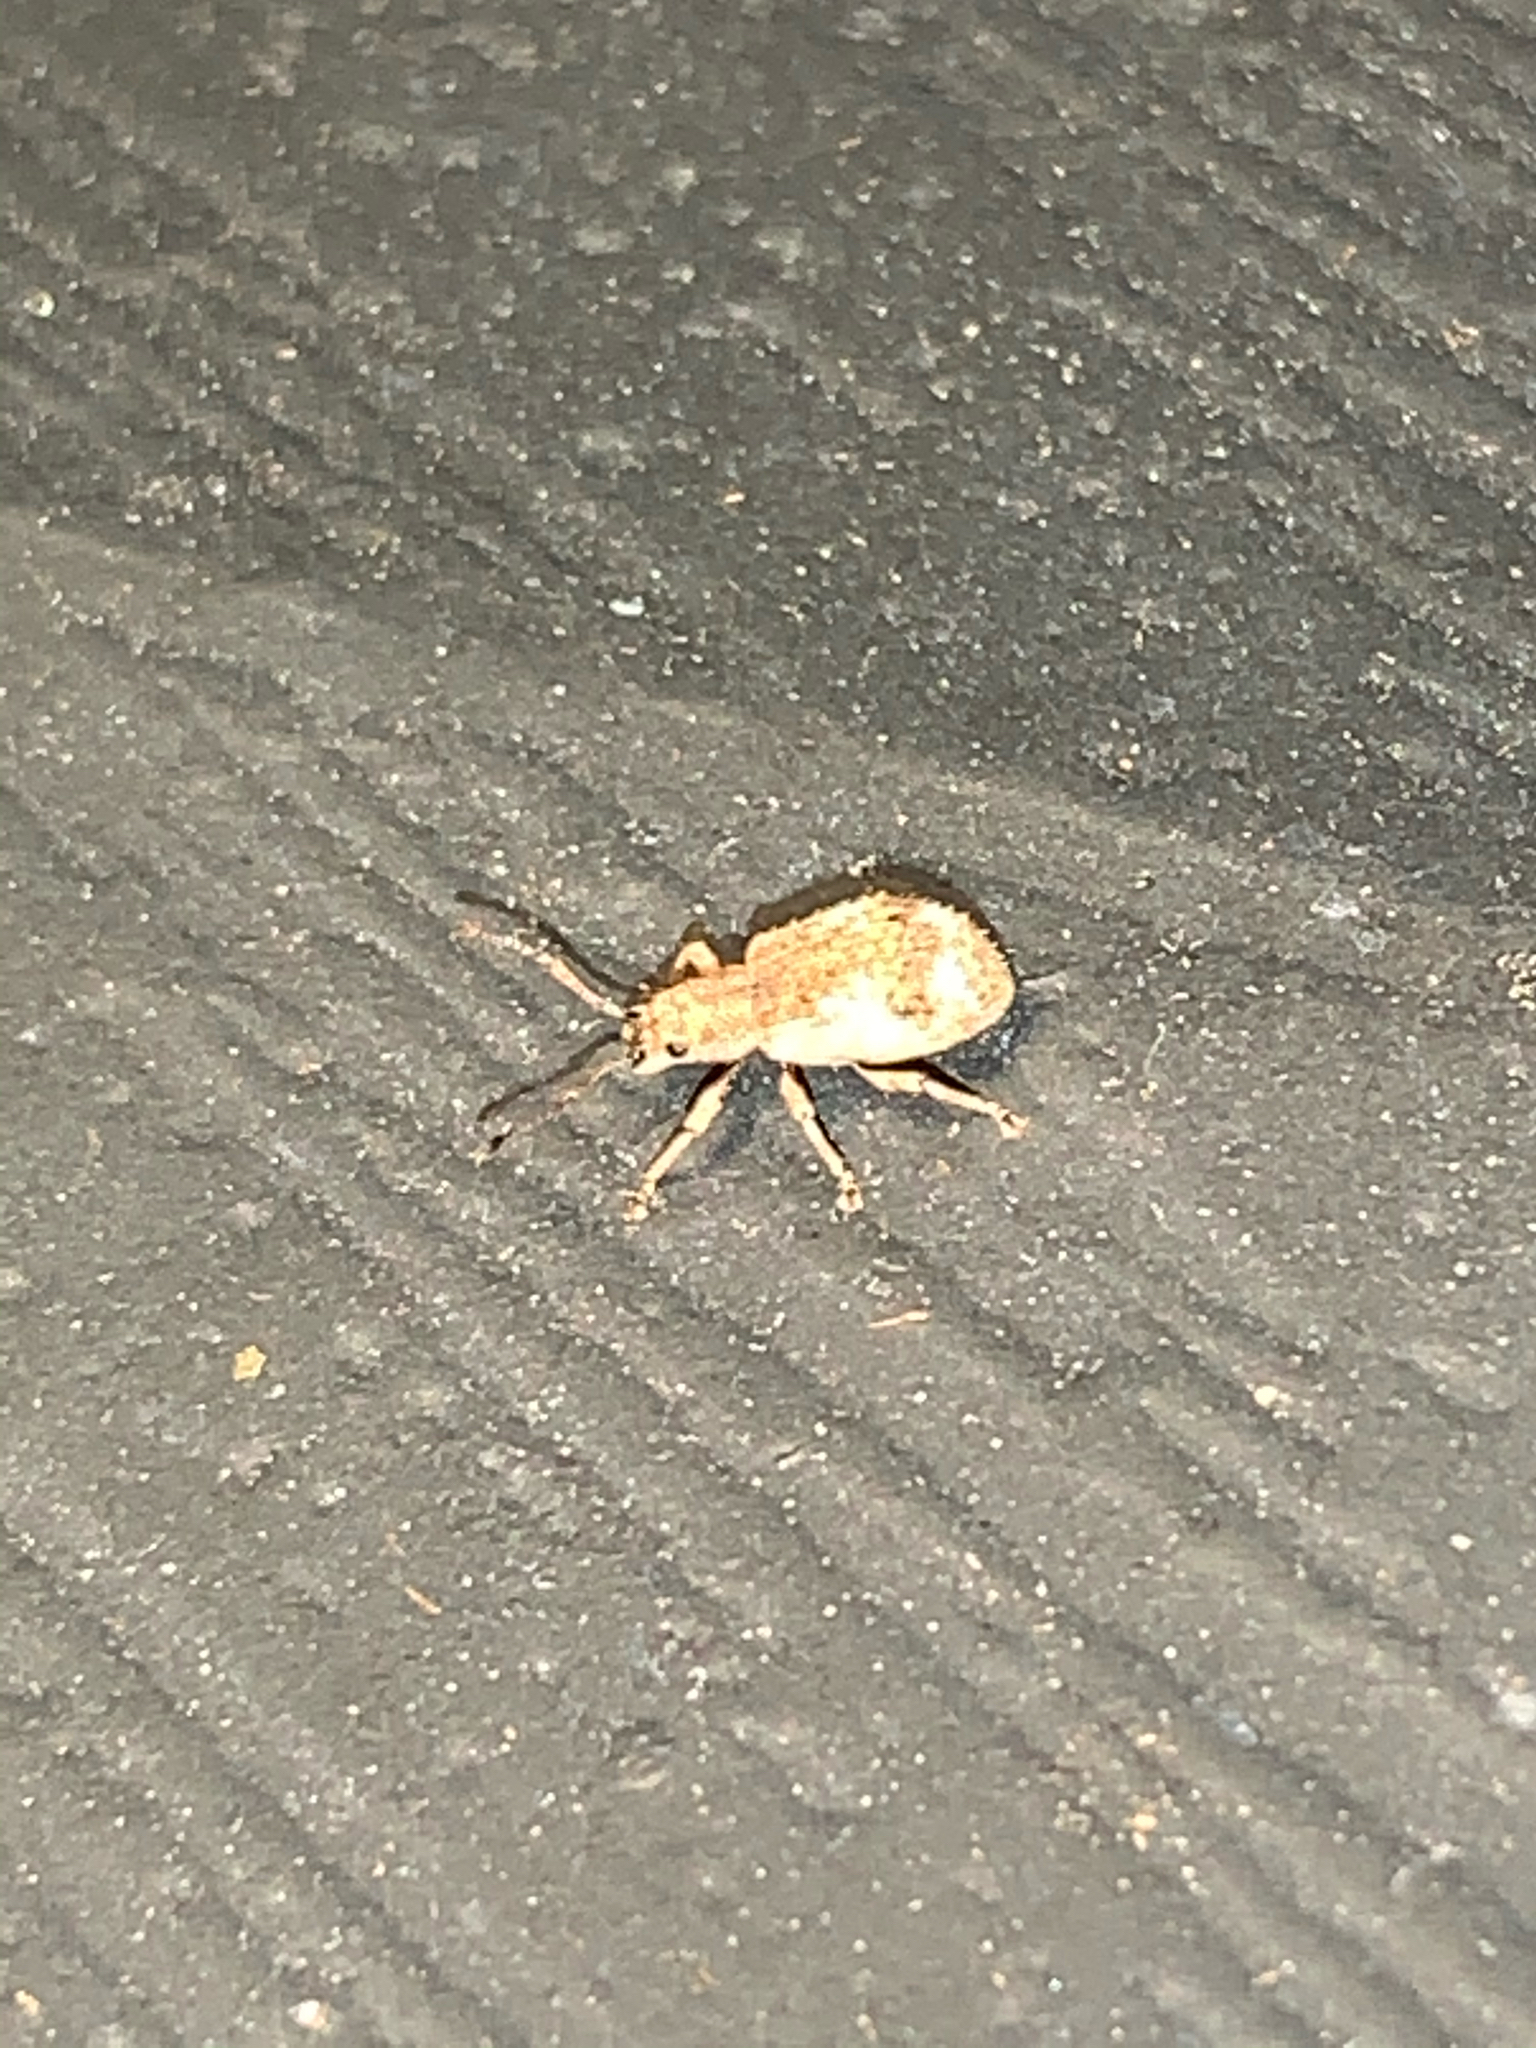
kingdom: Animalia
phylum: Arthropoda
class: Insecta
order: Coleoptera
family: Curculionidae
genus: Pseudoedophrys
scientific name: Pseudoedophrys hilleri
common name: Weevil
